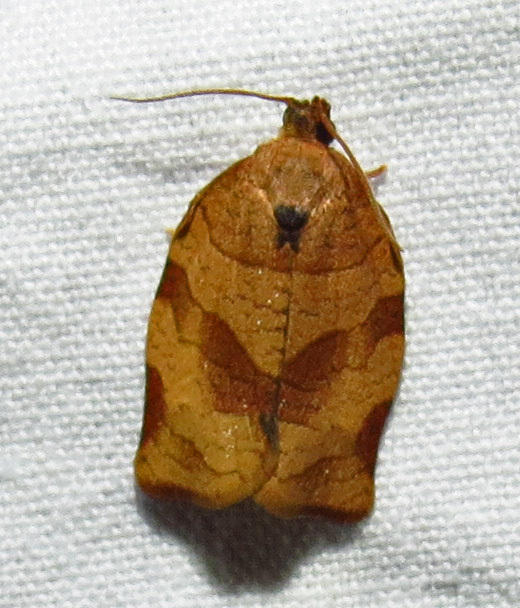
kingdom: Animalia
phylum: Arthropoda
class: Insecta
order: Lepidoptera
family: Tortricidae
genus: Choristoneura
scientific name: Choristoneura rosaceana
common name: Oblique-banded leafroller moth
